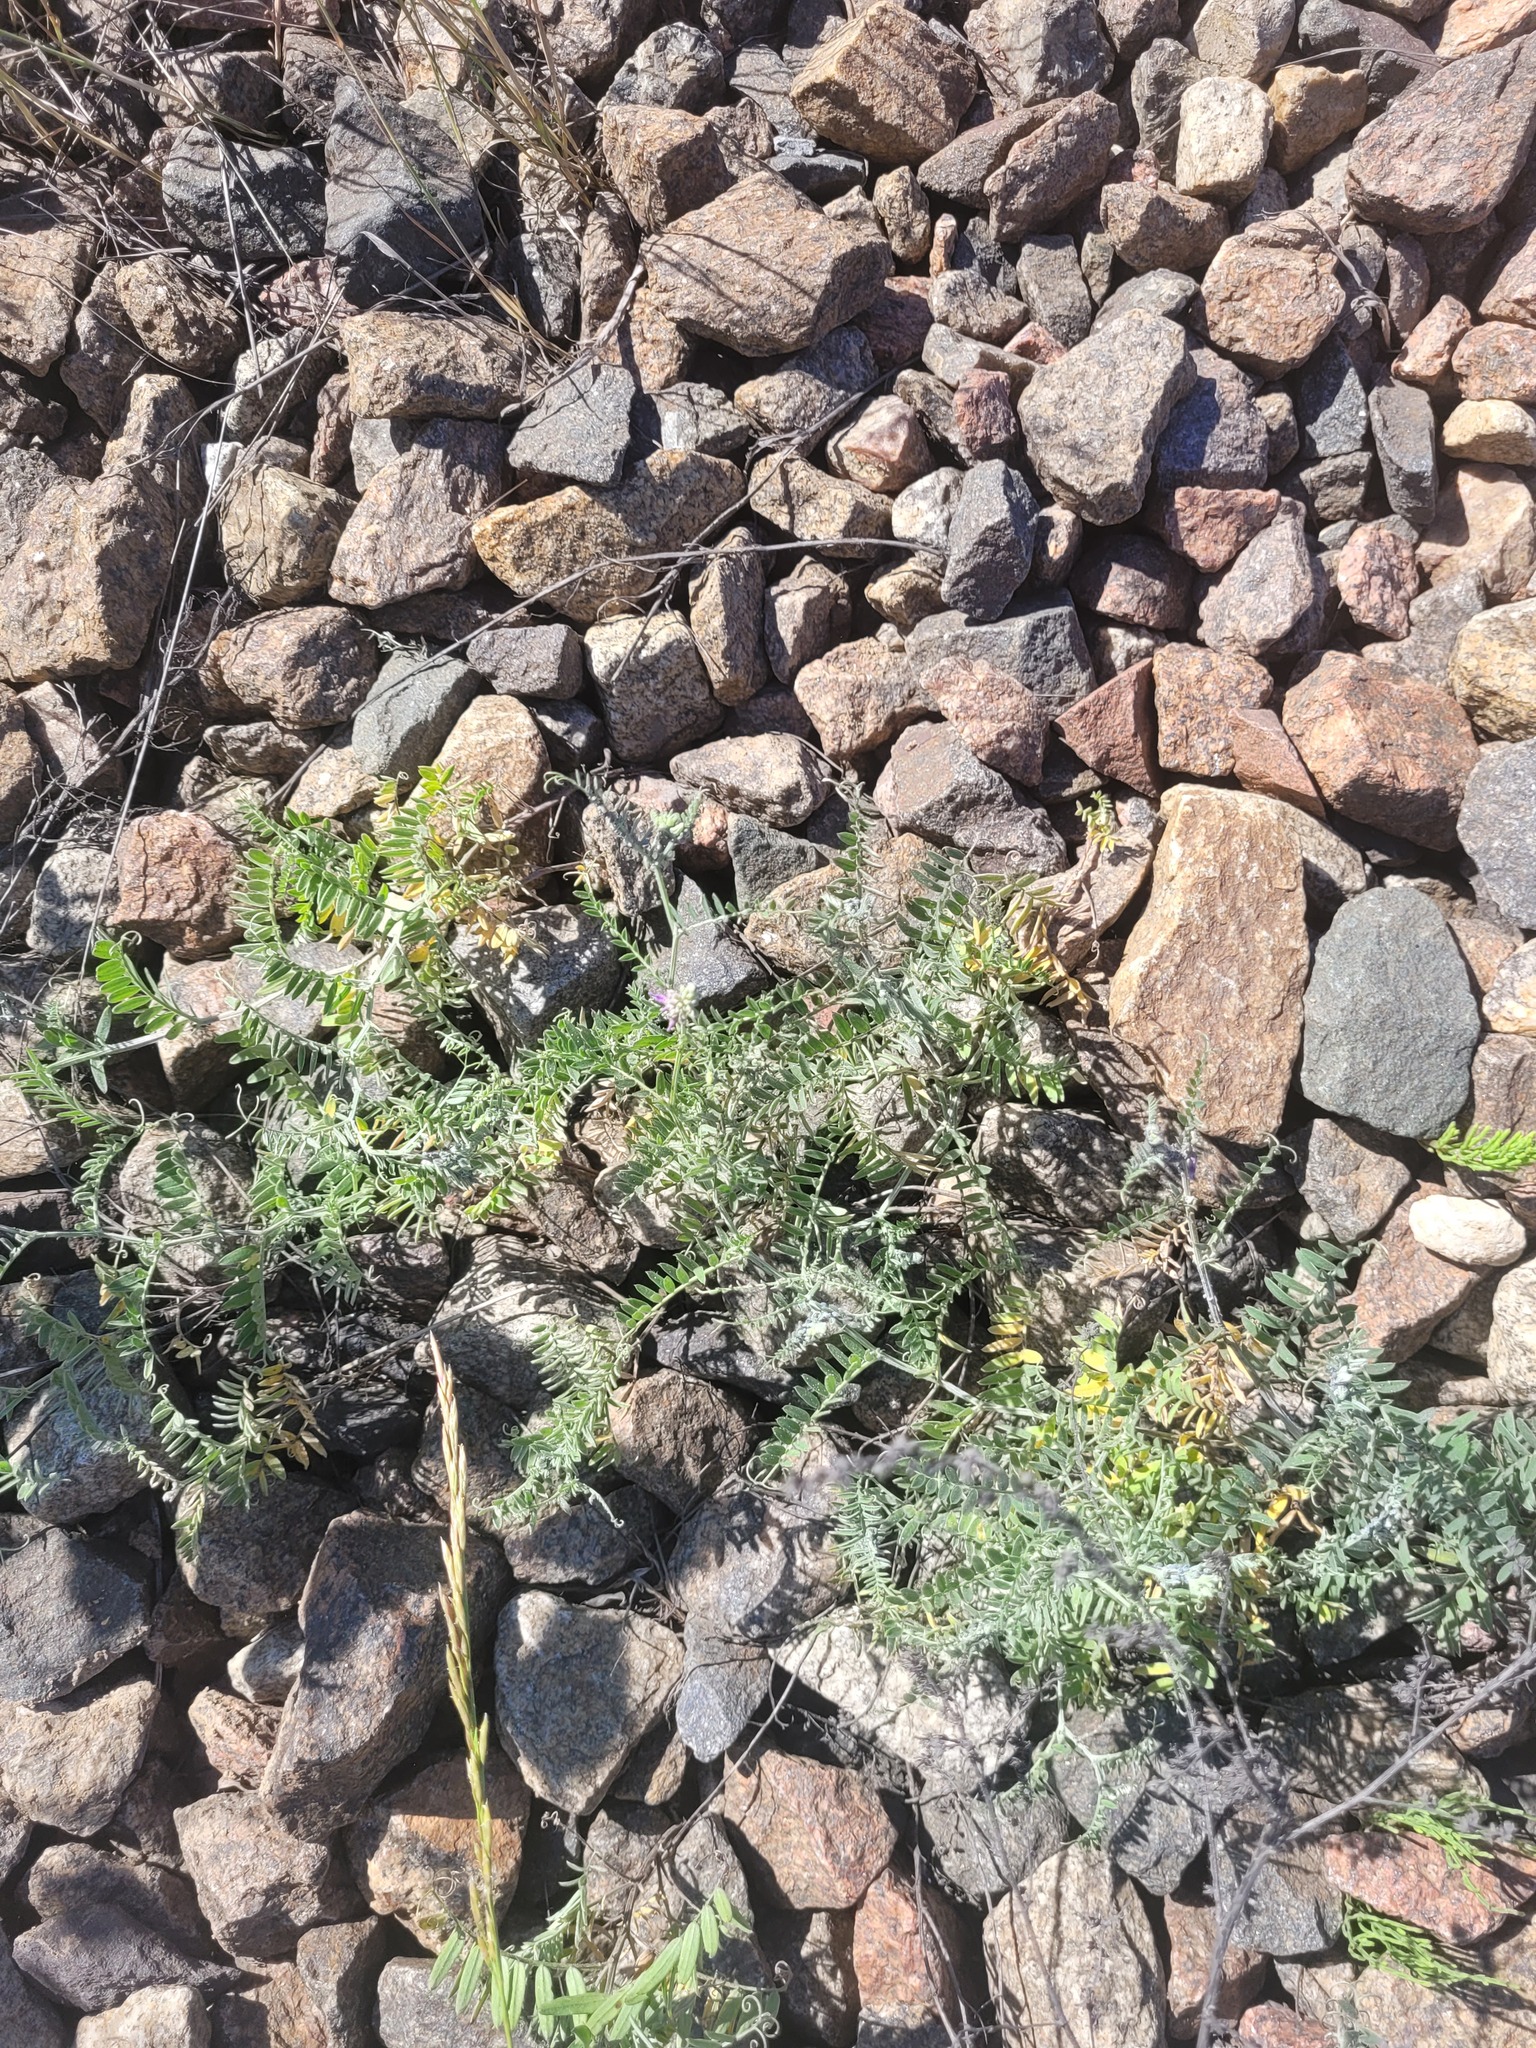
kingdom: Plantae
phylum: Tracheophyta
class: Magnoliopsida
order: Fabales
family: Fabaceae
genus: Vicia
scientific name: Vicia cracca
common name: Bird vetch
